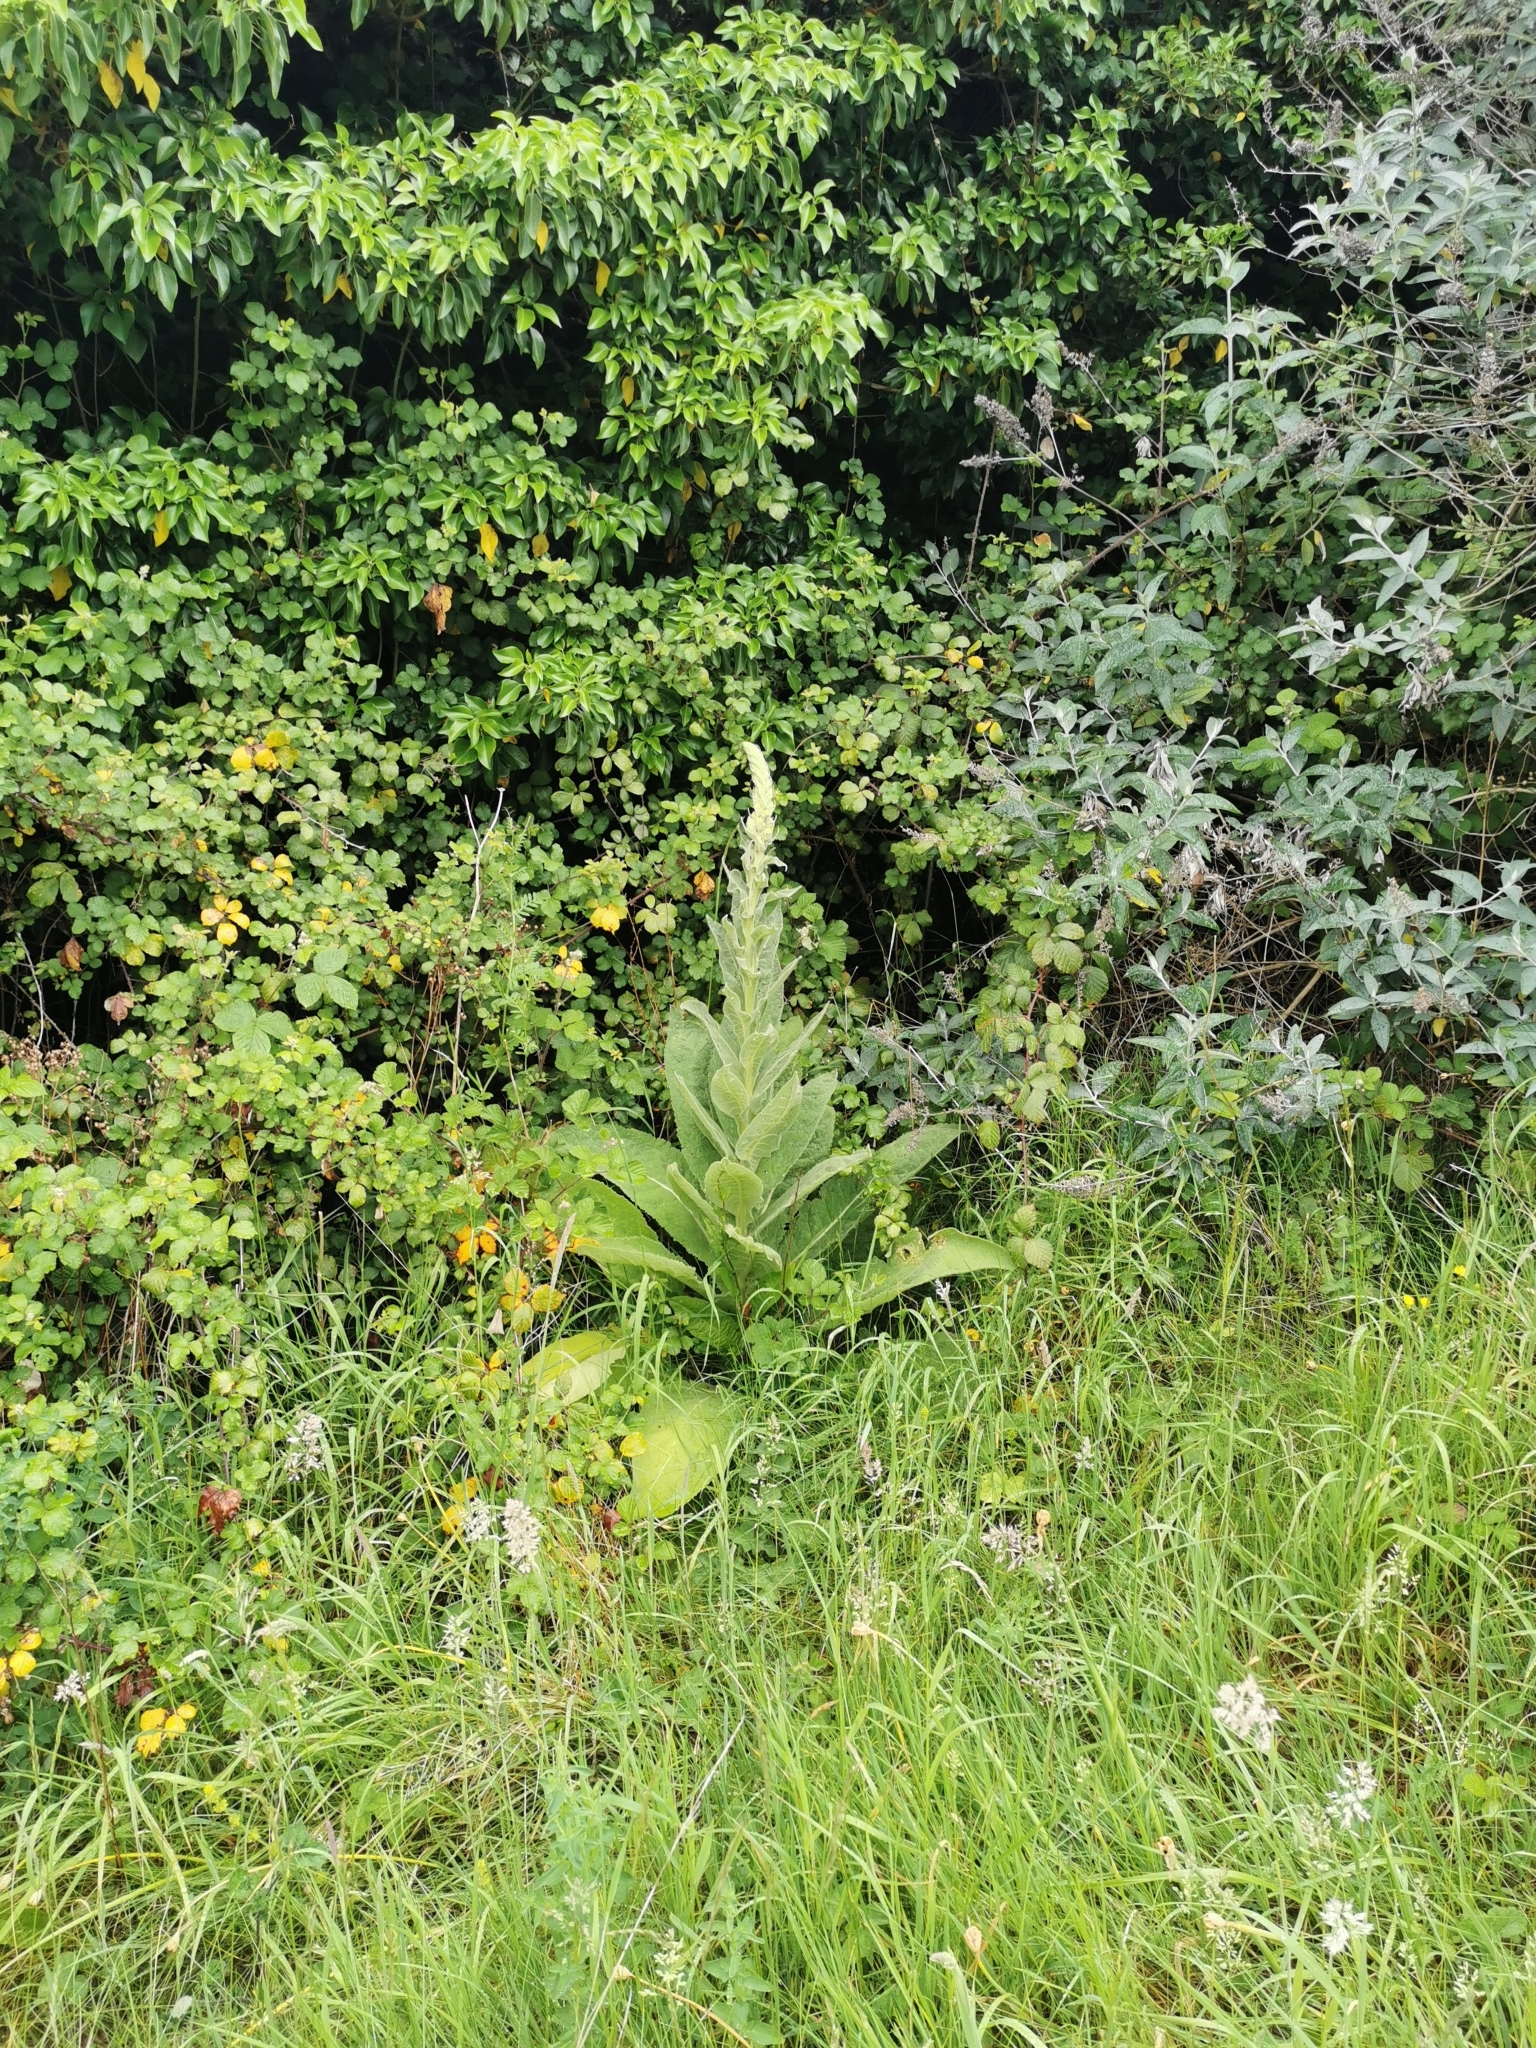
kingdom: Plantae
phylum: Tracheophyta
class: Magnoliopsida
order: Lamiales
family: Scrophulariaceae
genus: Verbascum
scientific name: Verbascum thapsus
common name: Common mullein
